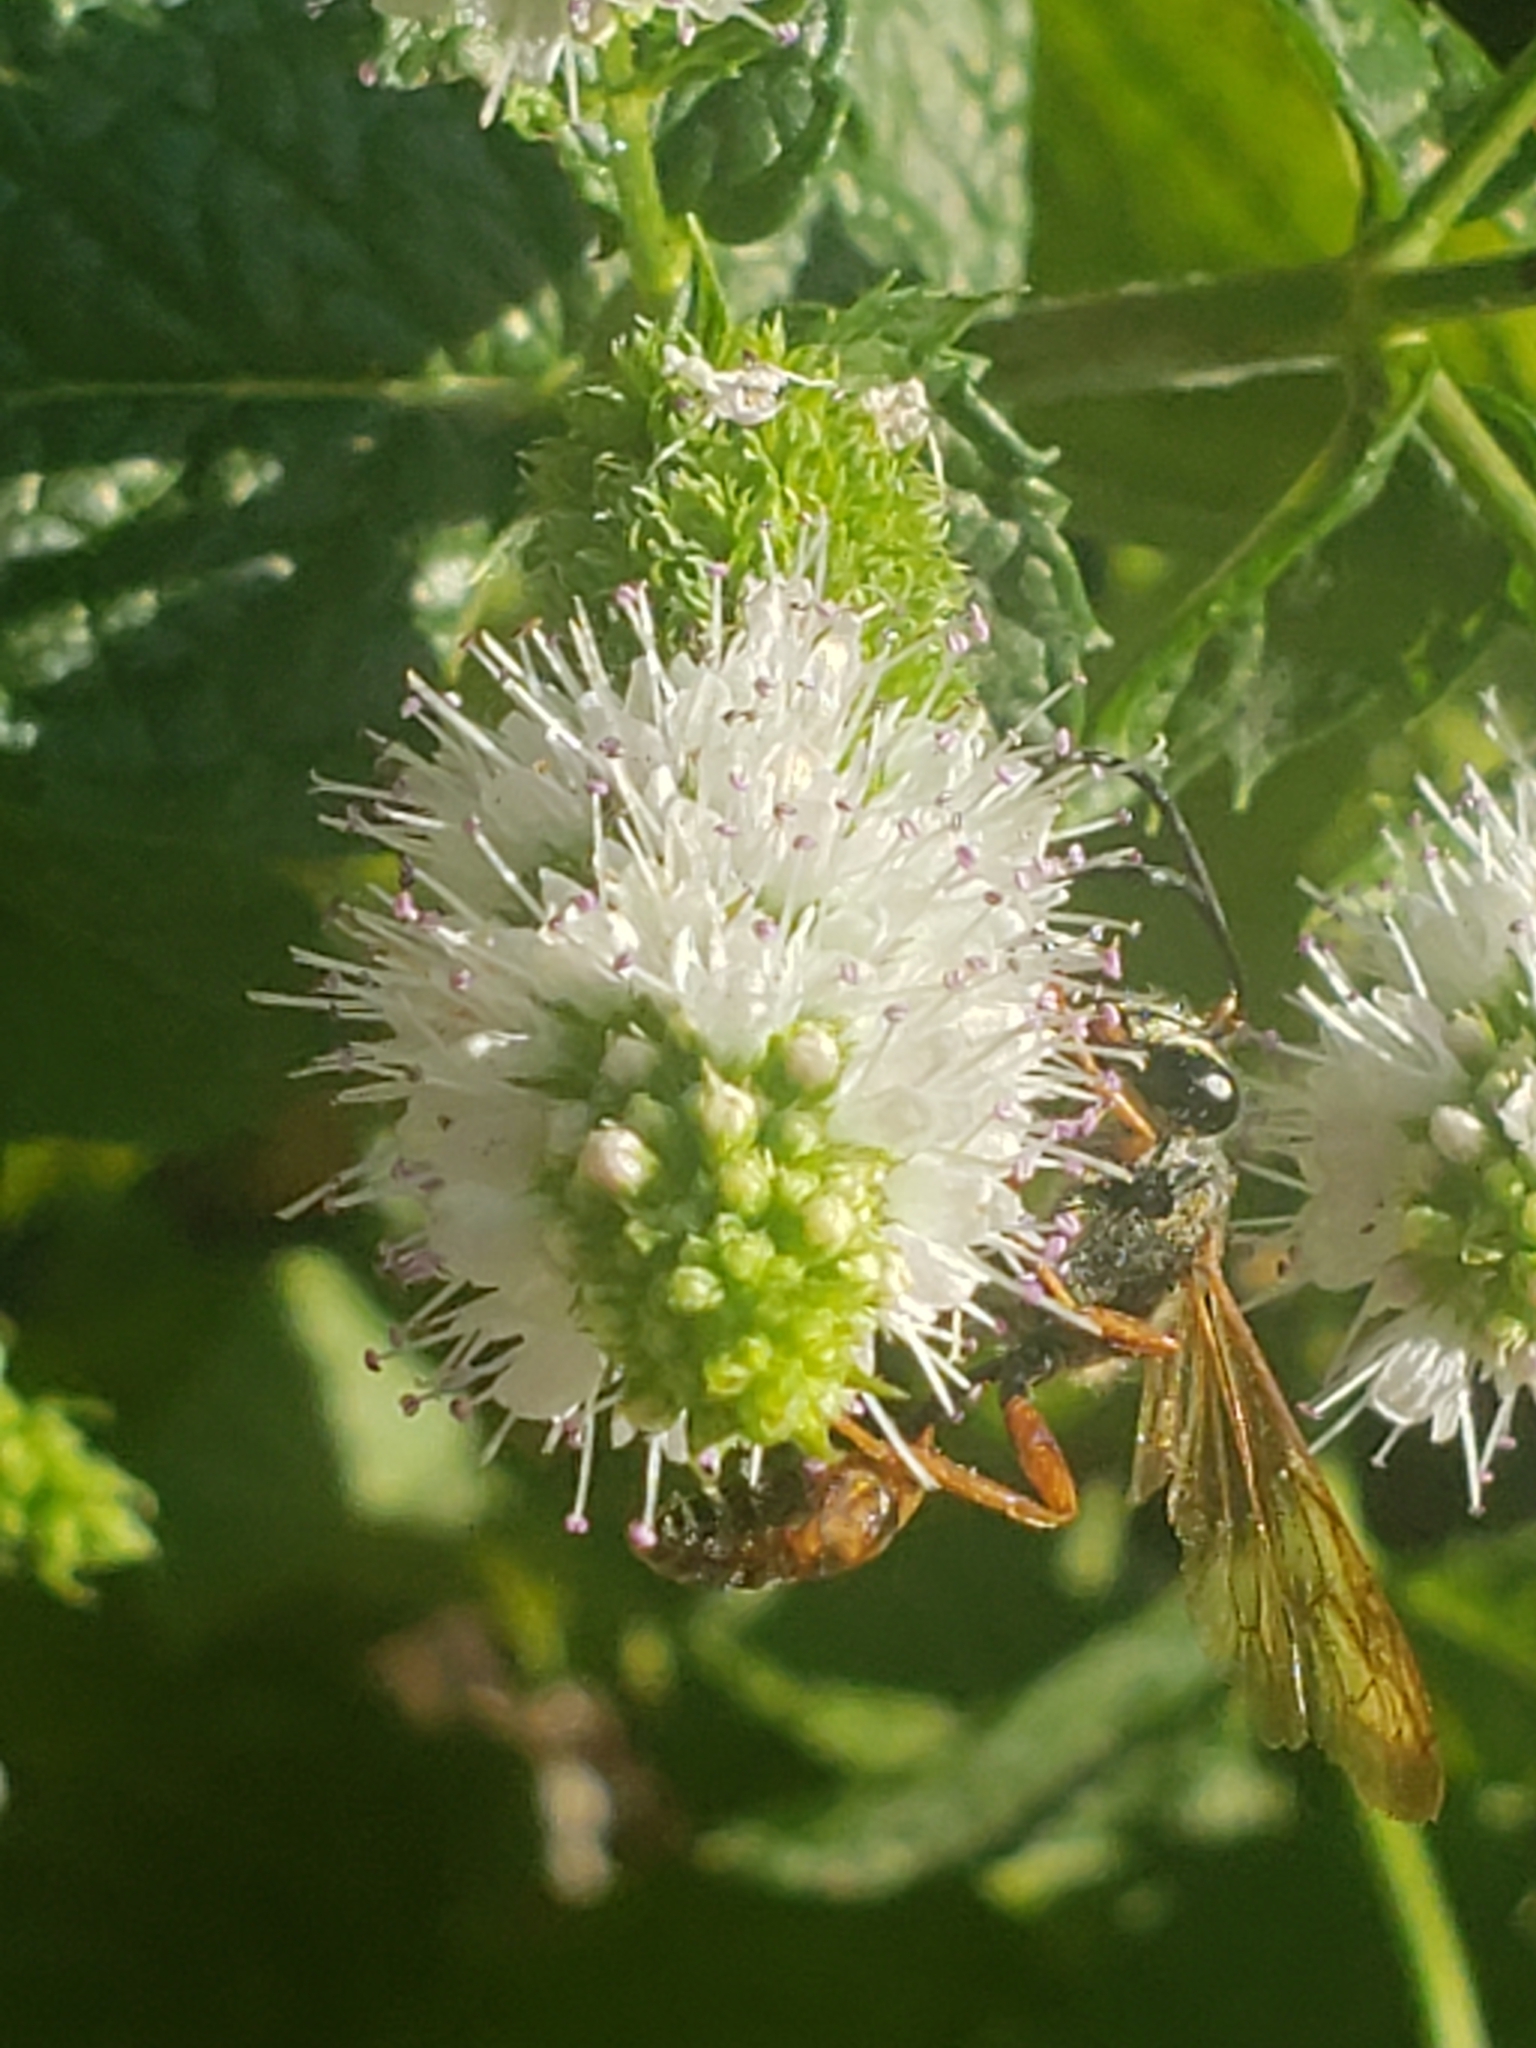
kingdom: Animalia
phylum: Arthropoda
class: Insecta
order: Hymenoptera
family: Sphecidae
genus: Isodontia
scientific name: Isodontia elegans
